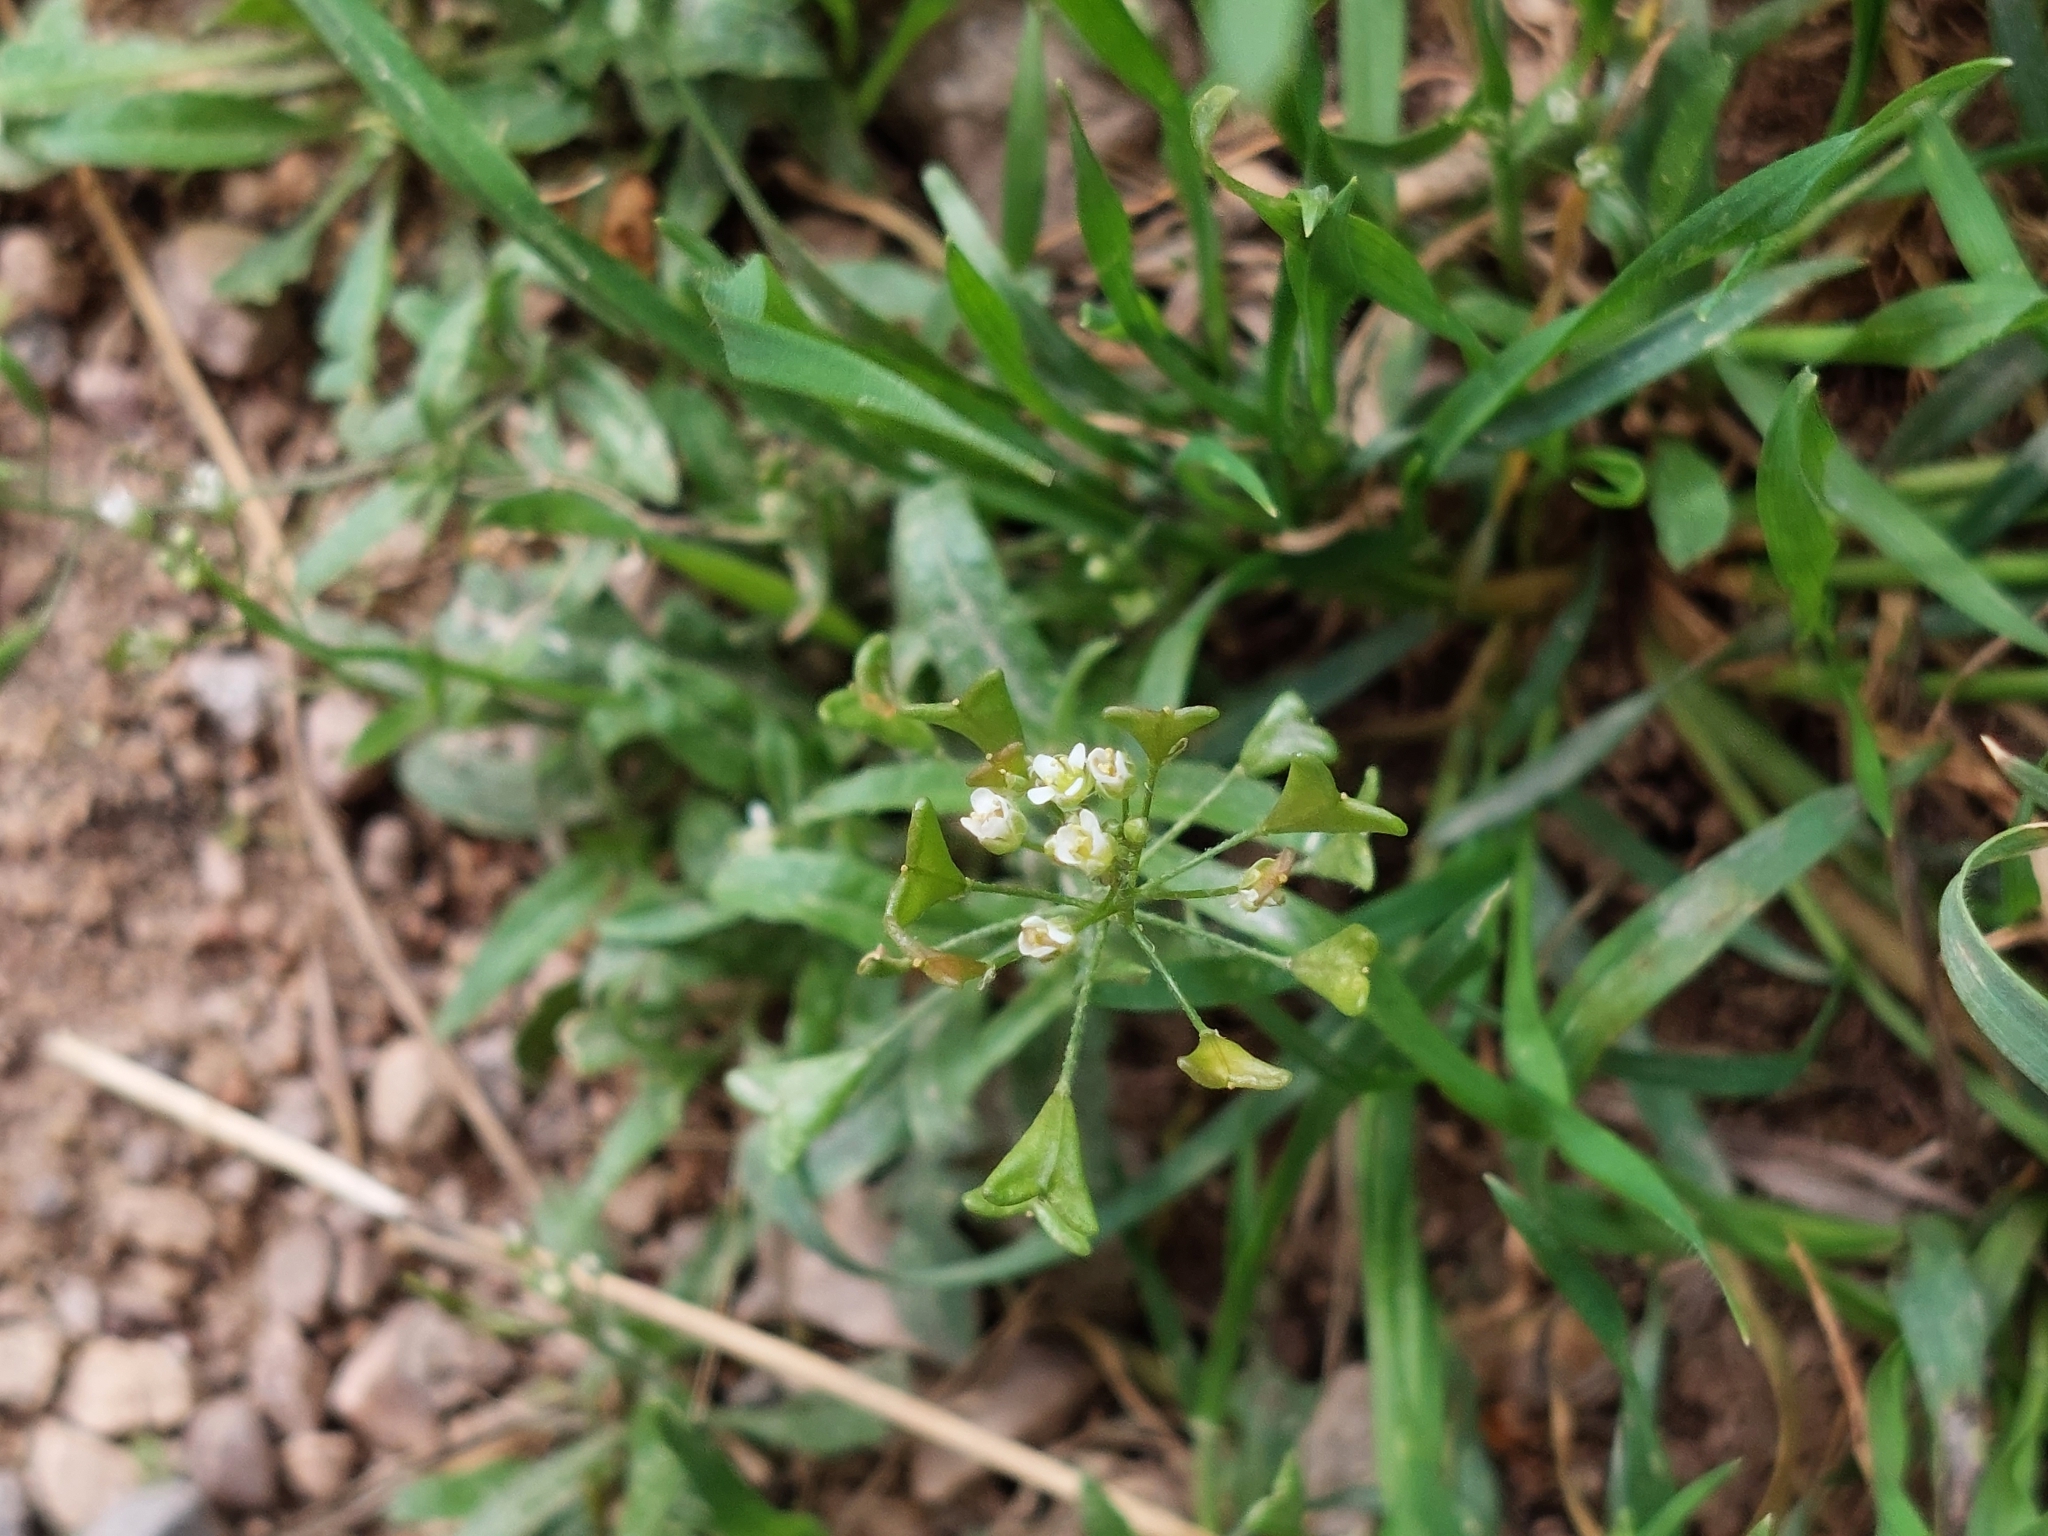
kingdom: Plantae
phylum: Tracheophyta
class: Magnoliopsida
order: Brassicales
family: Brassicaceae
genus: Capsella
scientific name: Capsella bursa-pastoris
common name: Shepherd's purse
